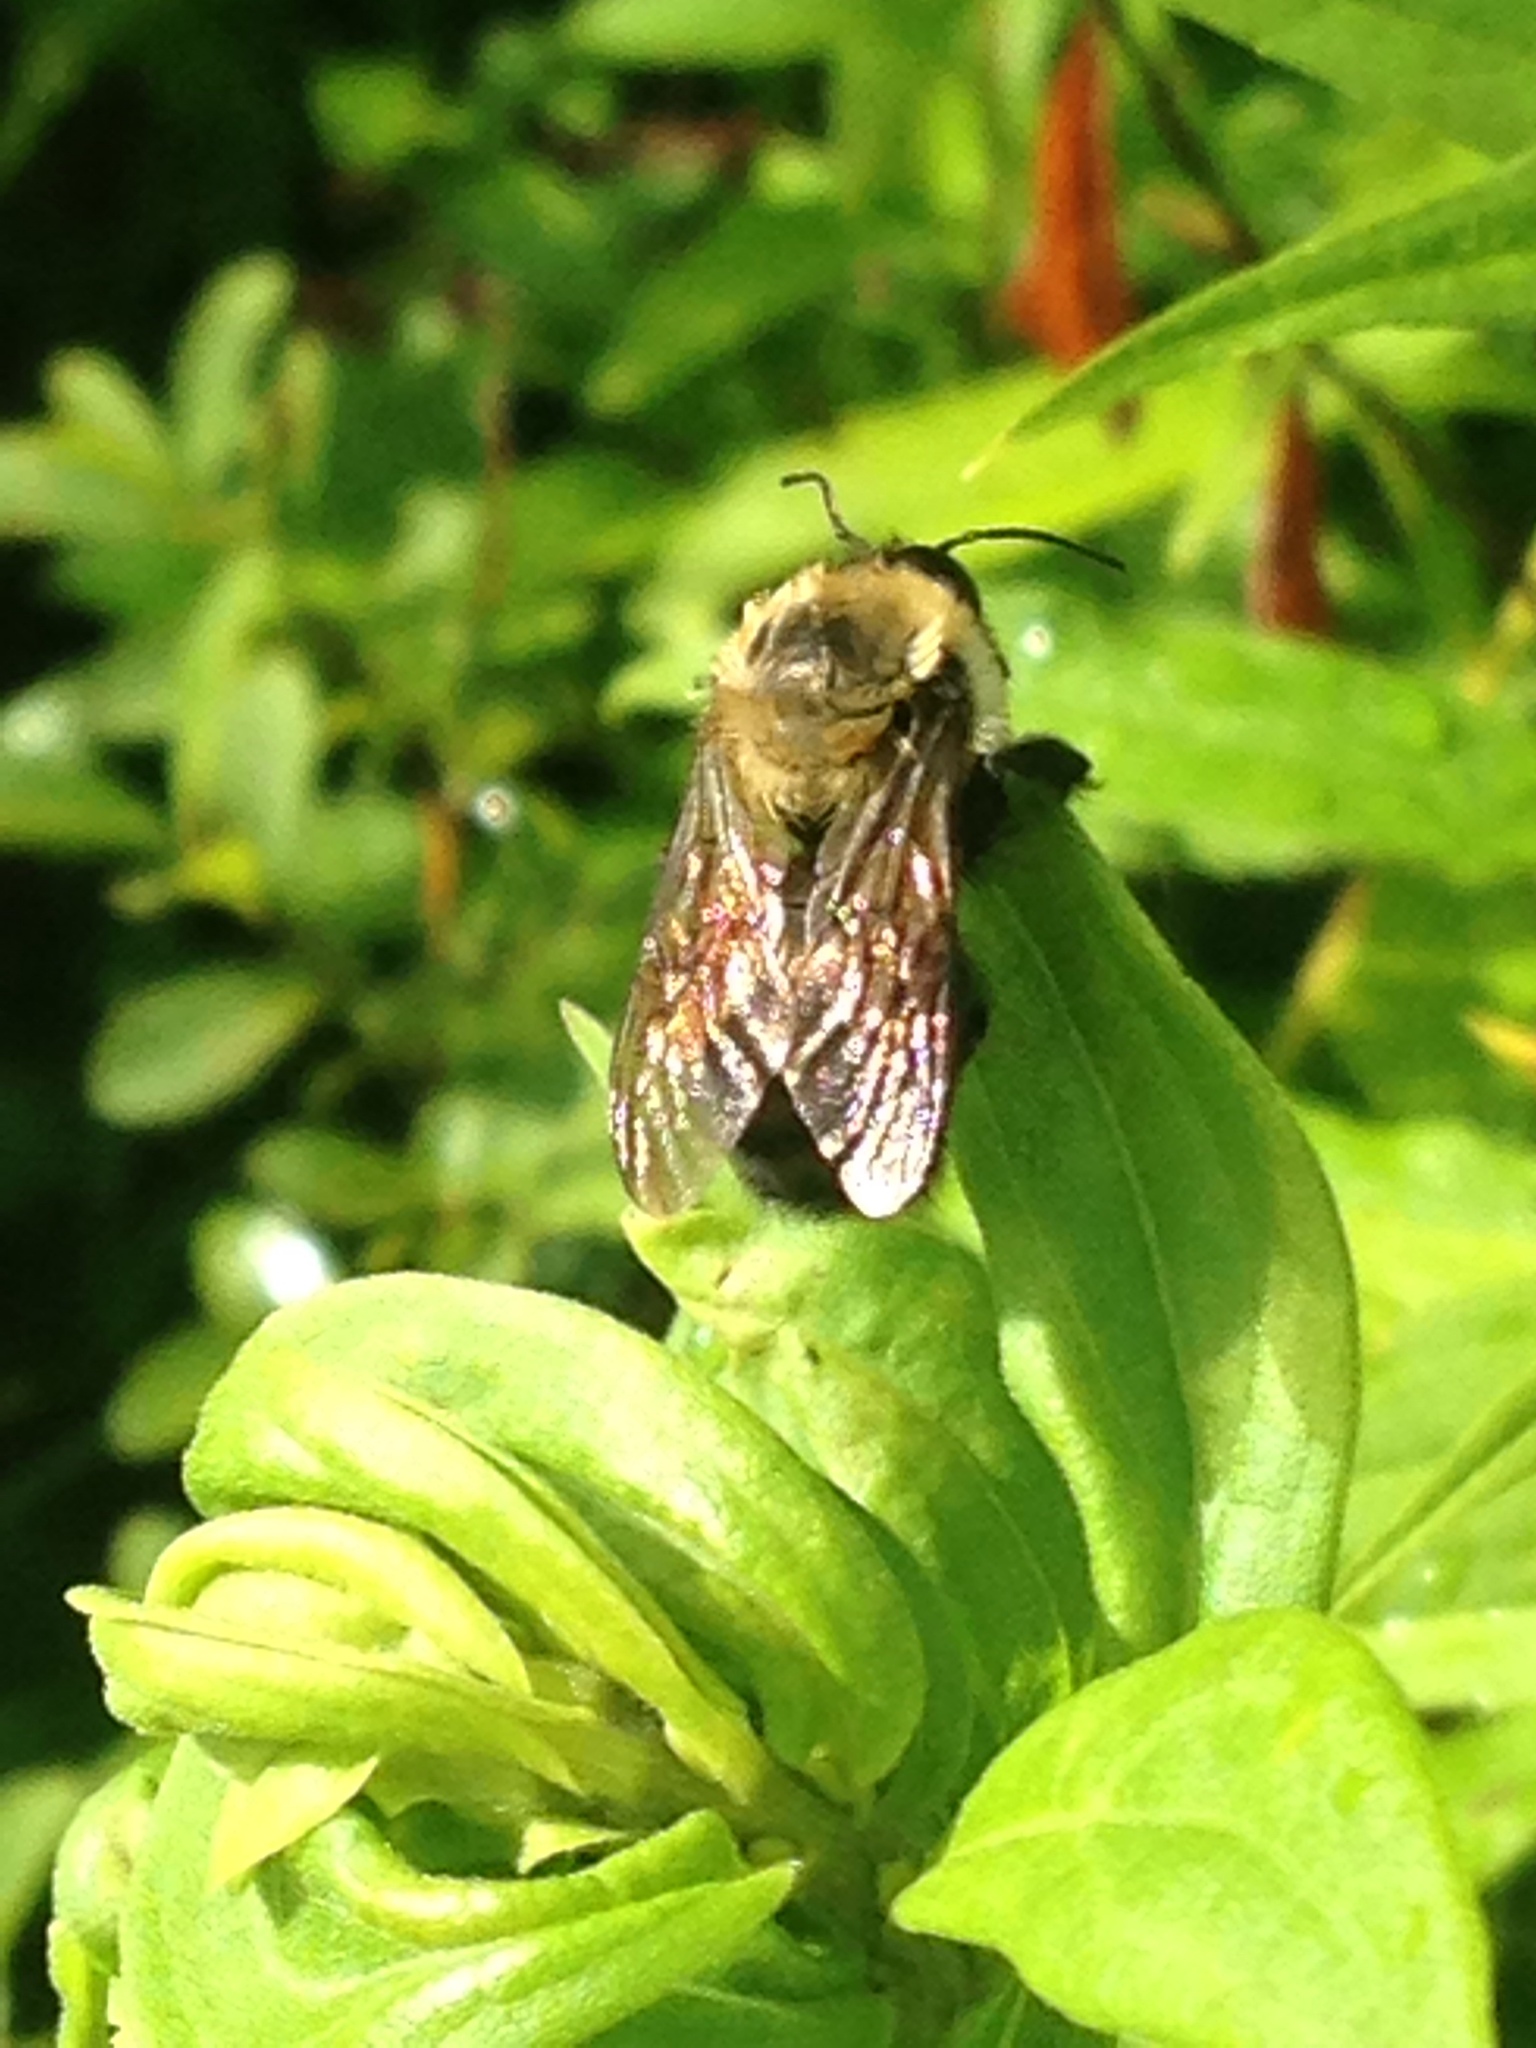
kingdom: Animalia
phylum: Arthropoda
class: Insecta
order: Hymenoptera
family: Apidae
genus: Bombus
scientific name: Bombus griseocollis
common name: Brown-belted bumble bee
